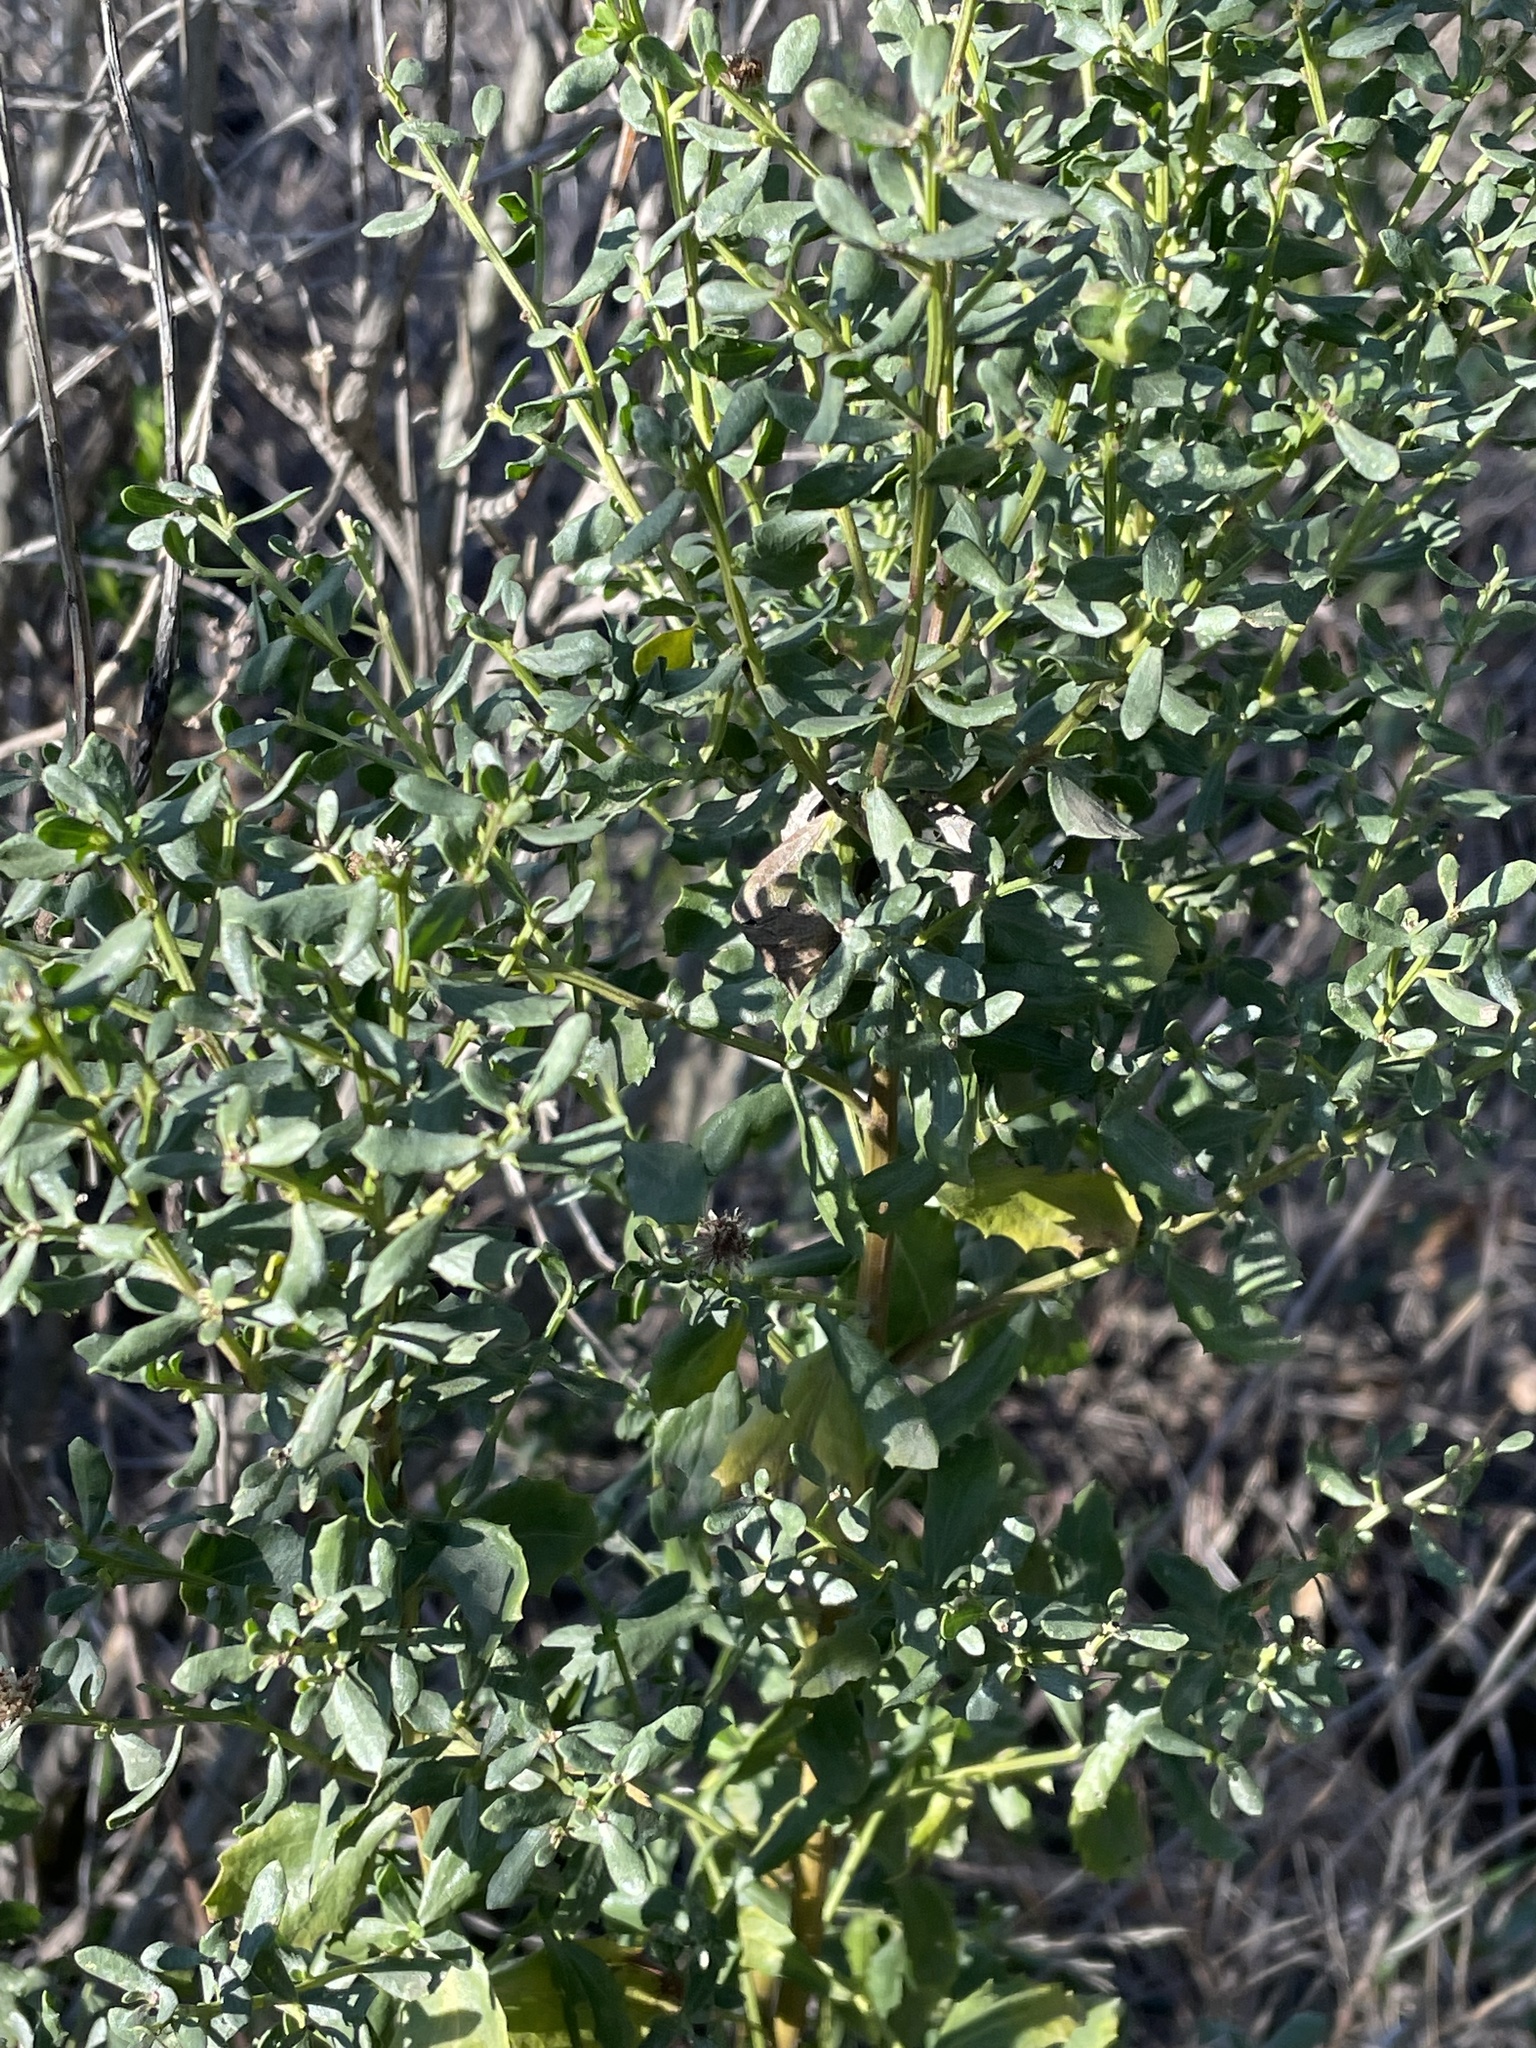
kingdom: Plantae
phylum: Tracheophyta
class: Magnoliopsida
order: Asterales
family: Asteraceae
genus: Baccharis
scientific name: Baccharis pilularis
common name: Coyotebrush
